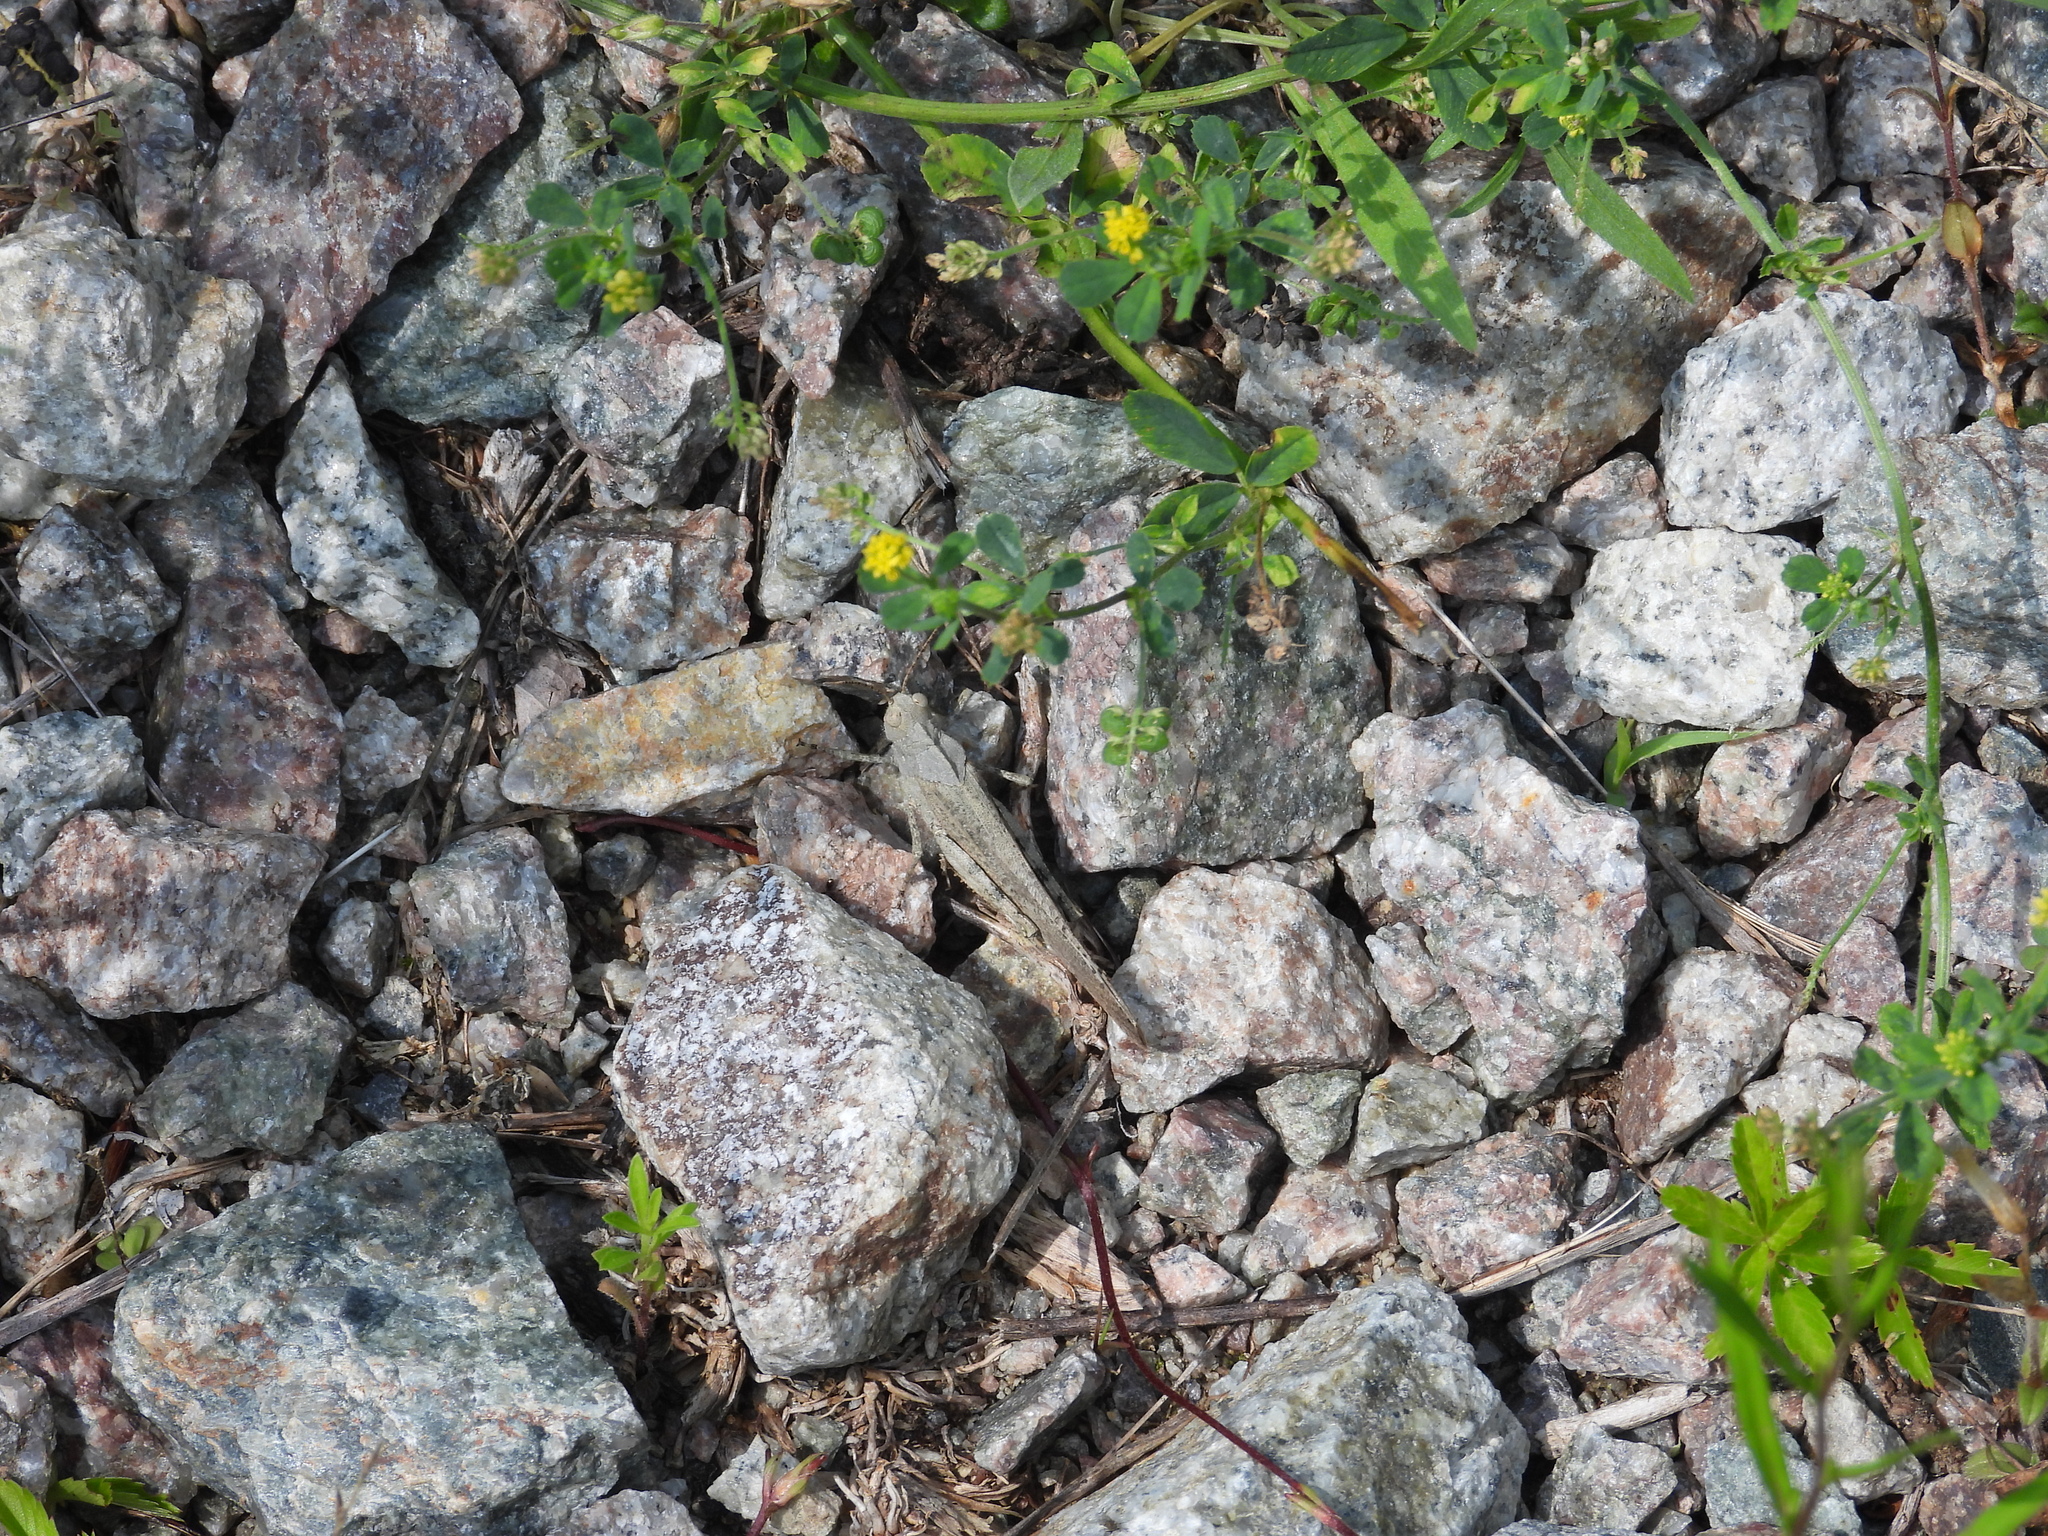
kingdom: Animalia
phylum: Arthropoda
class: Insecta
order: Orthoptera
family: Acrididae
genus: Dissosteira
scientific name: Dissosteira carolina
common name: Carolina grasshopper
